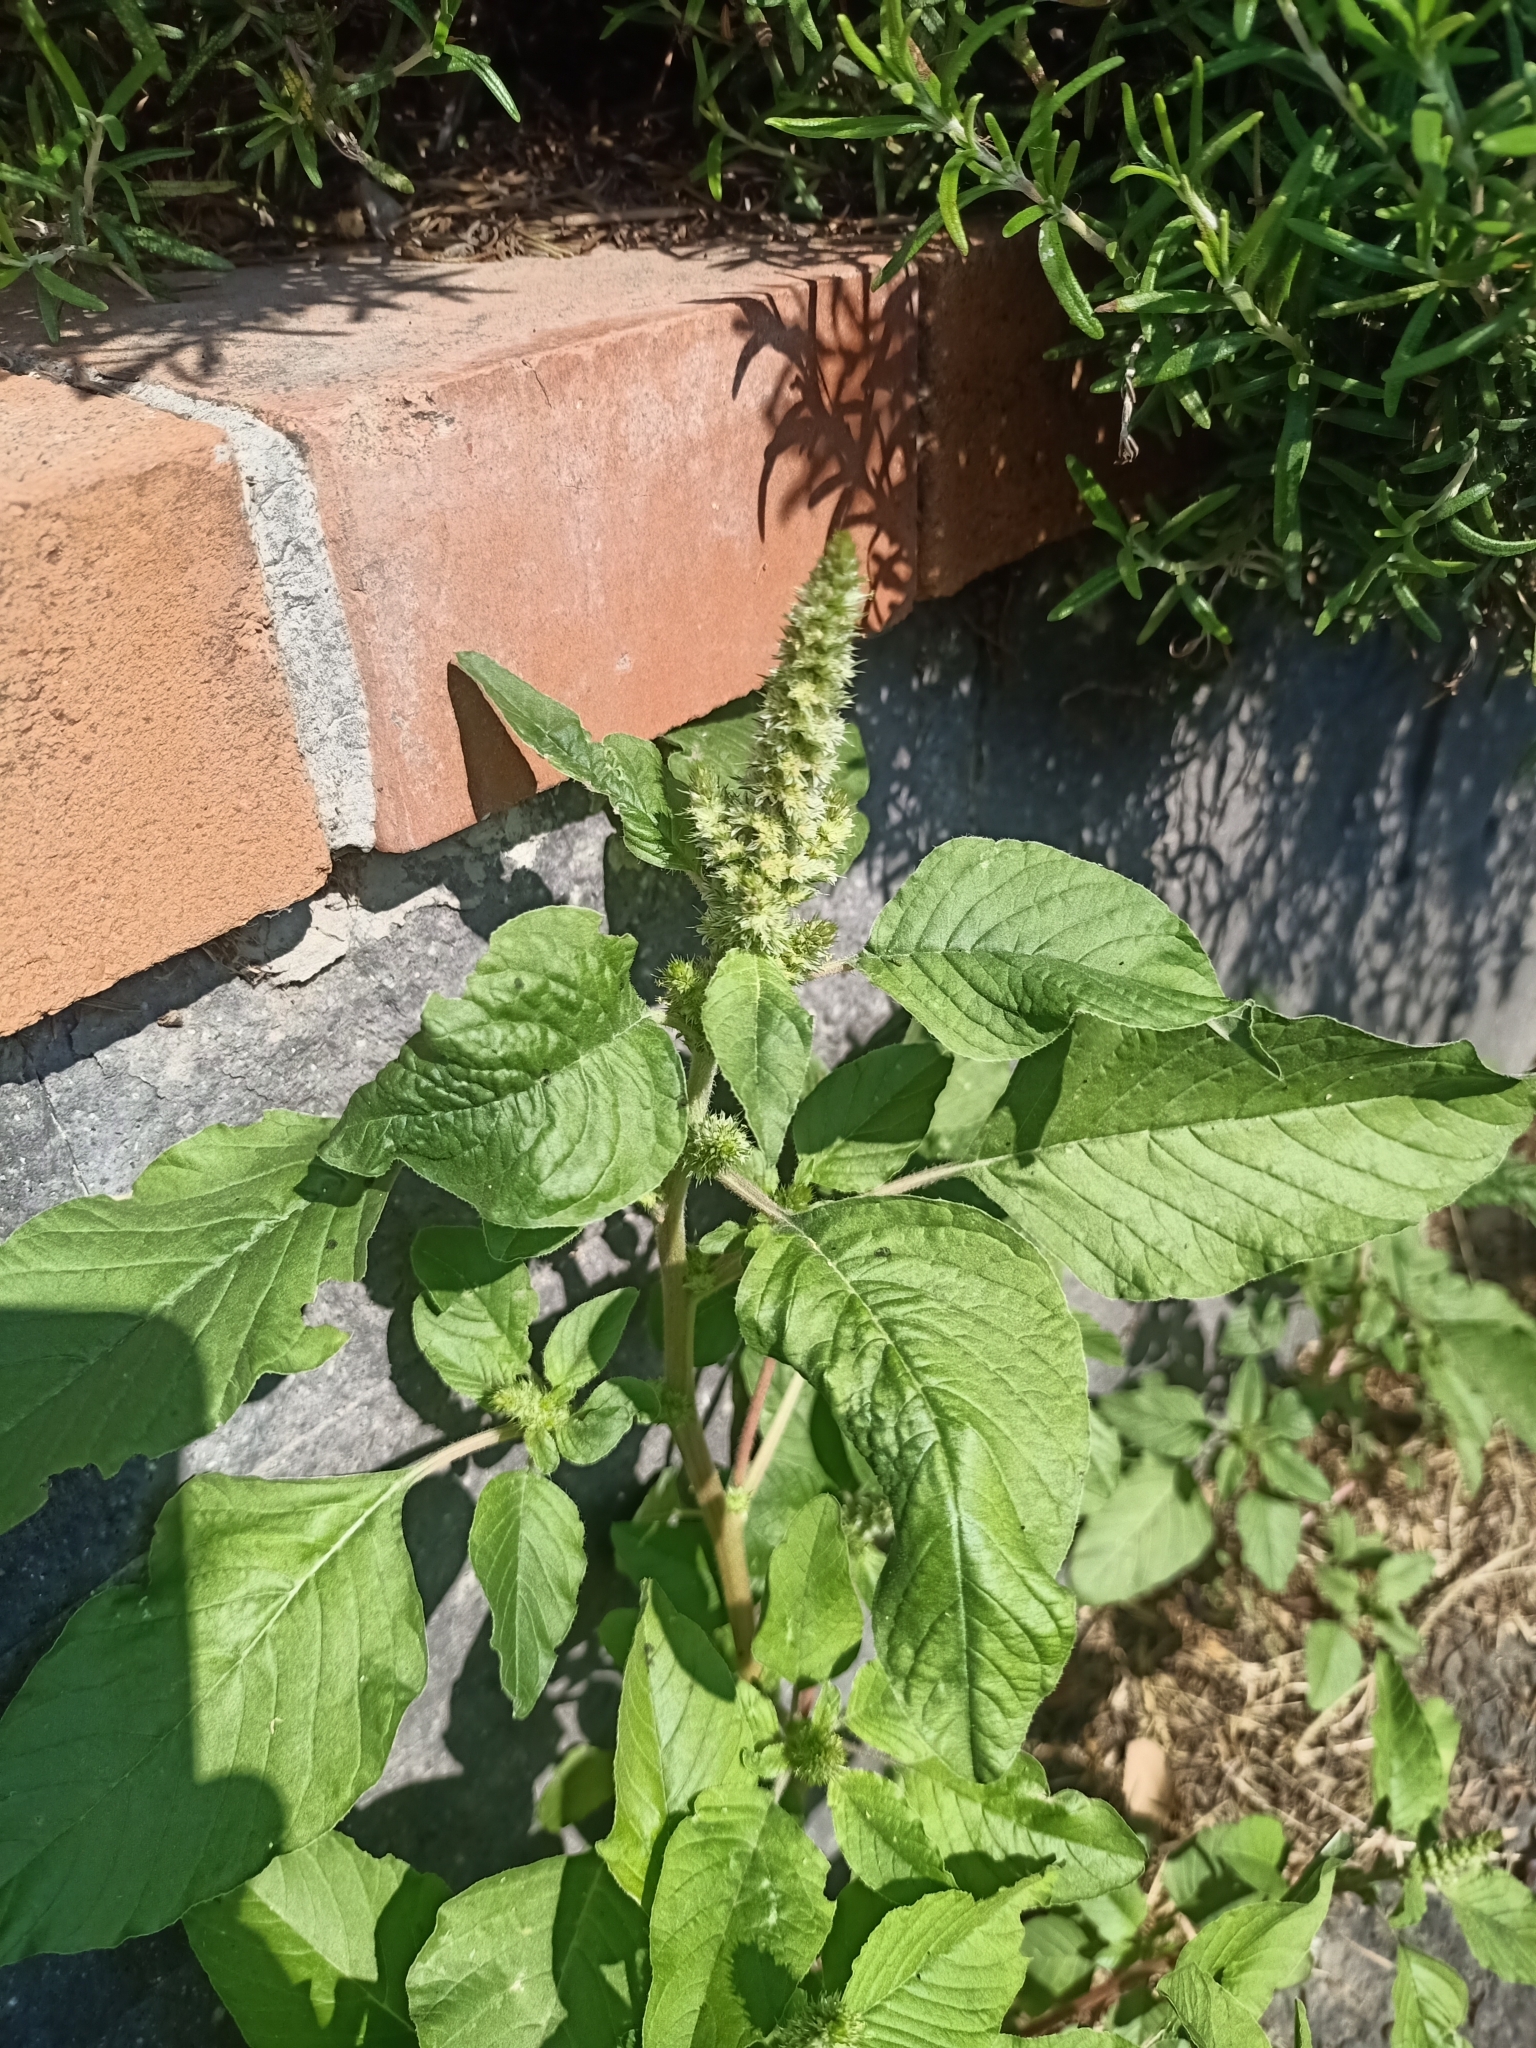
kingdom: Plantae
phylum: Tracheophyta
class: Magnoliopsida
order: Caryophyllales
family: Amaranthaceae
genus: Amaranthus
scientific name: Amaranthus retroflexus
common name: Redroot amaranth
